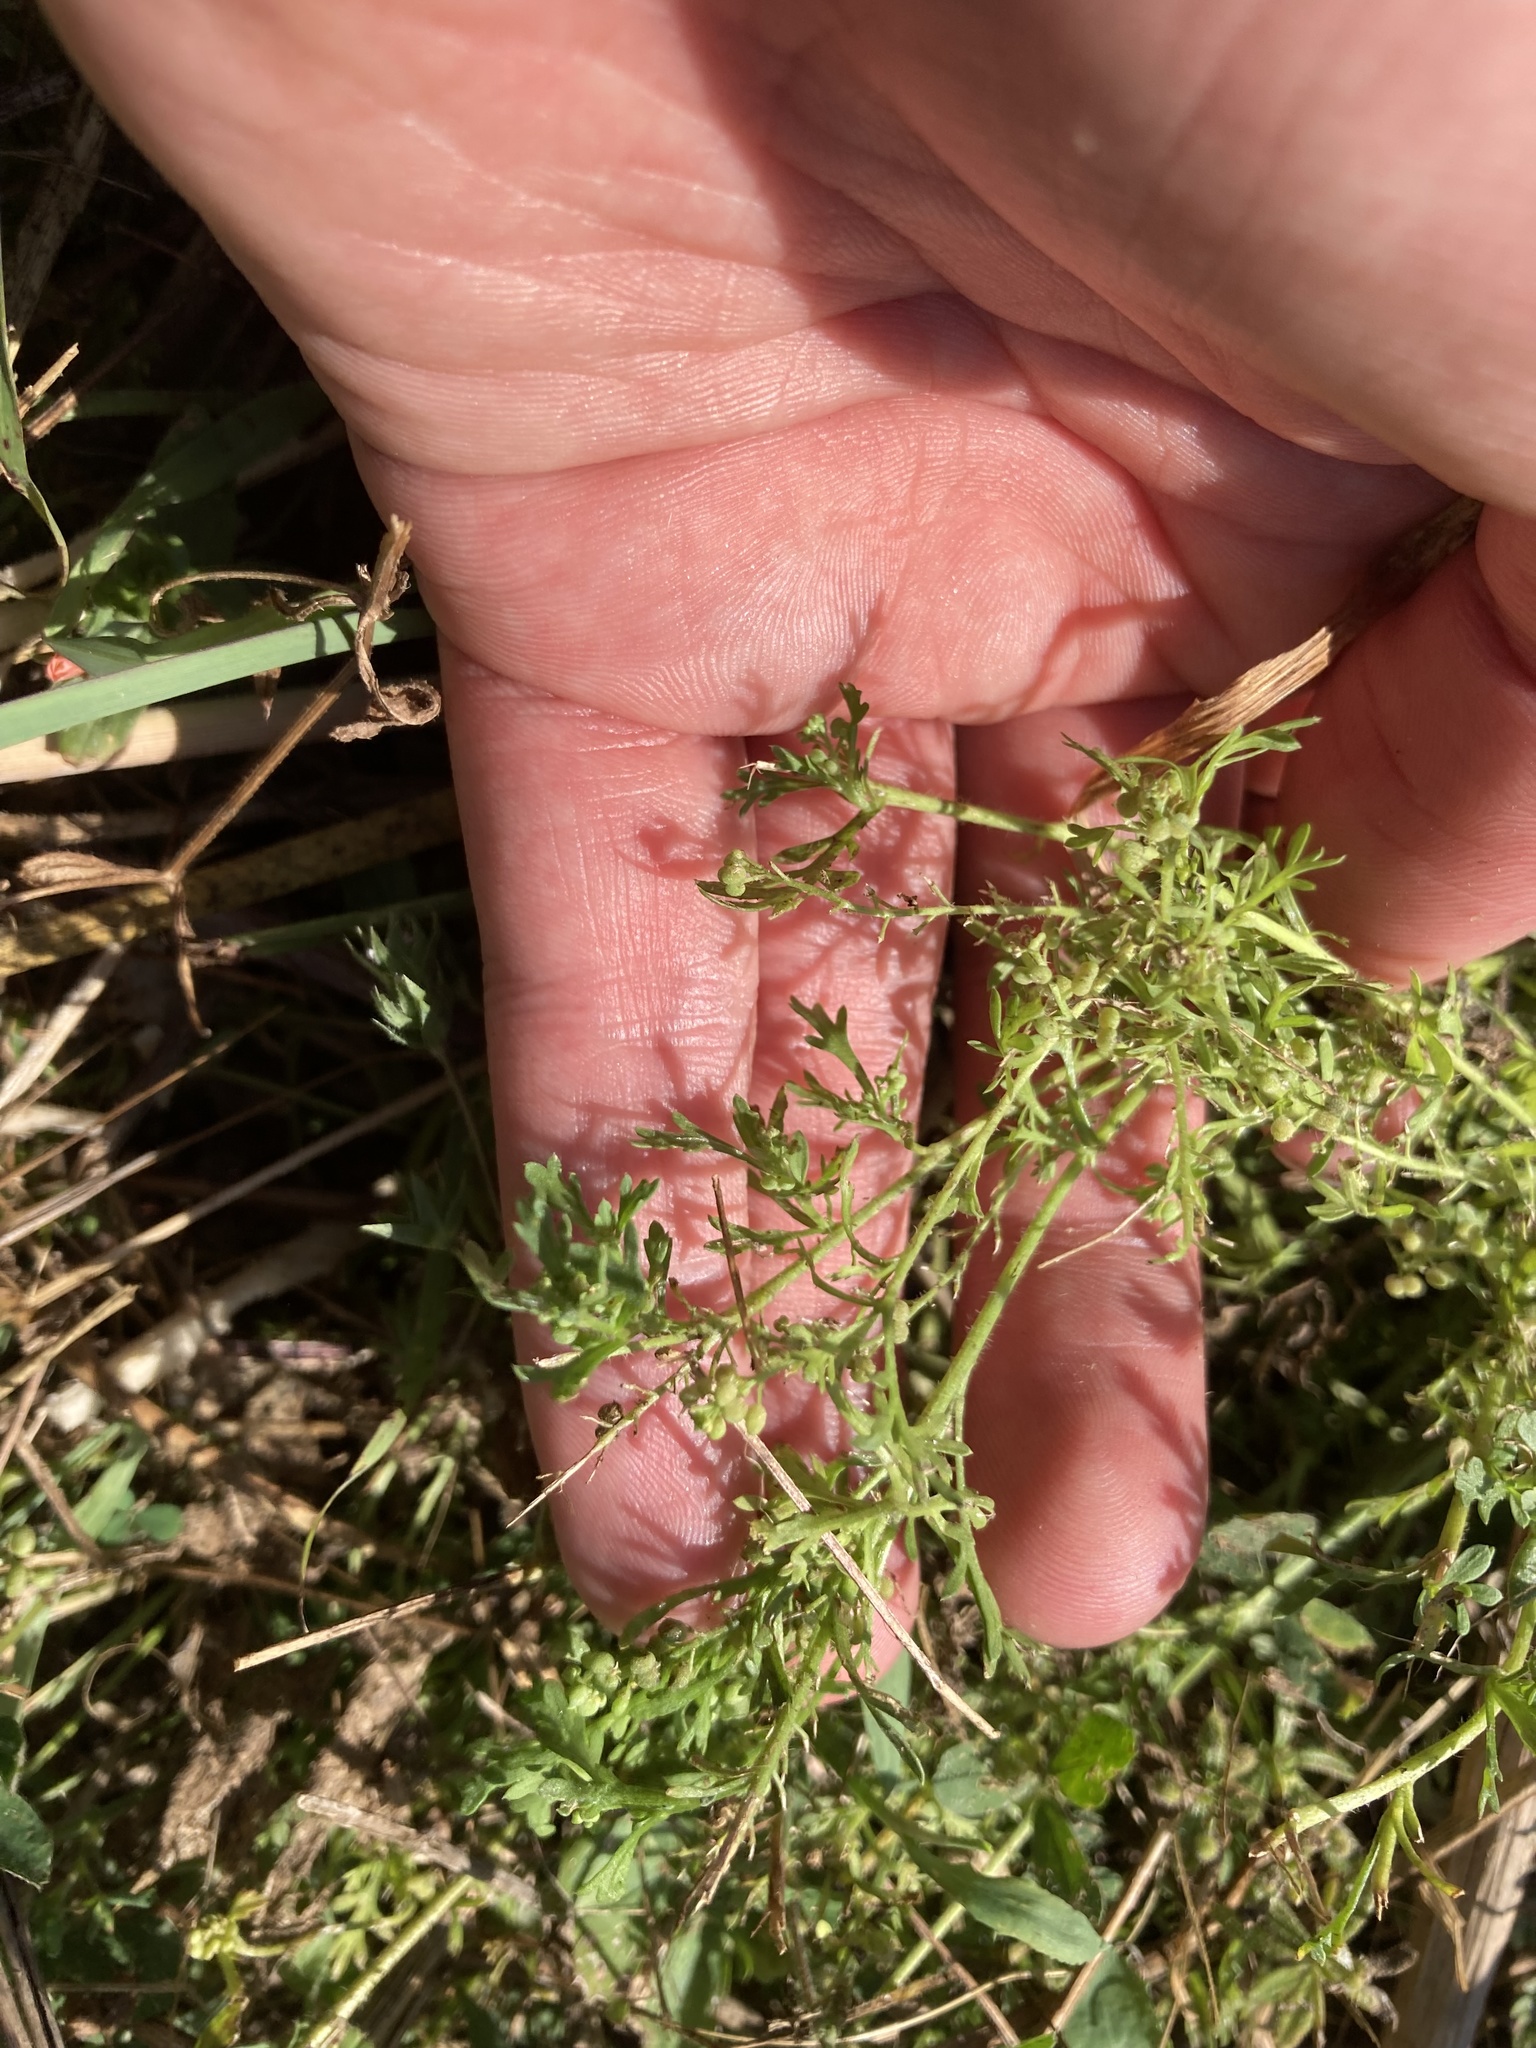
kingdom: Plantae
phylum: Tracheophyta
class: Magnoliopsida
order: Brassicales
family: Brassicaceae
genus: Lepidium
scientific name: Lepidium didymum
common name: Lesser swinecress
